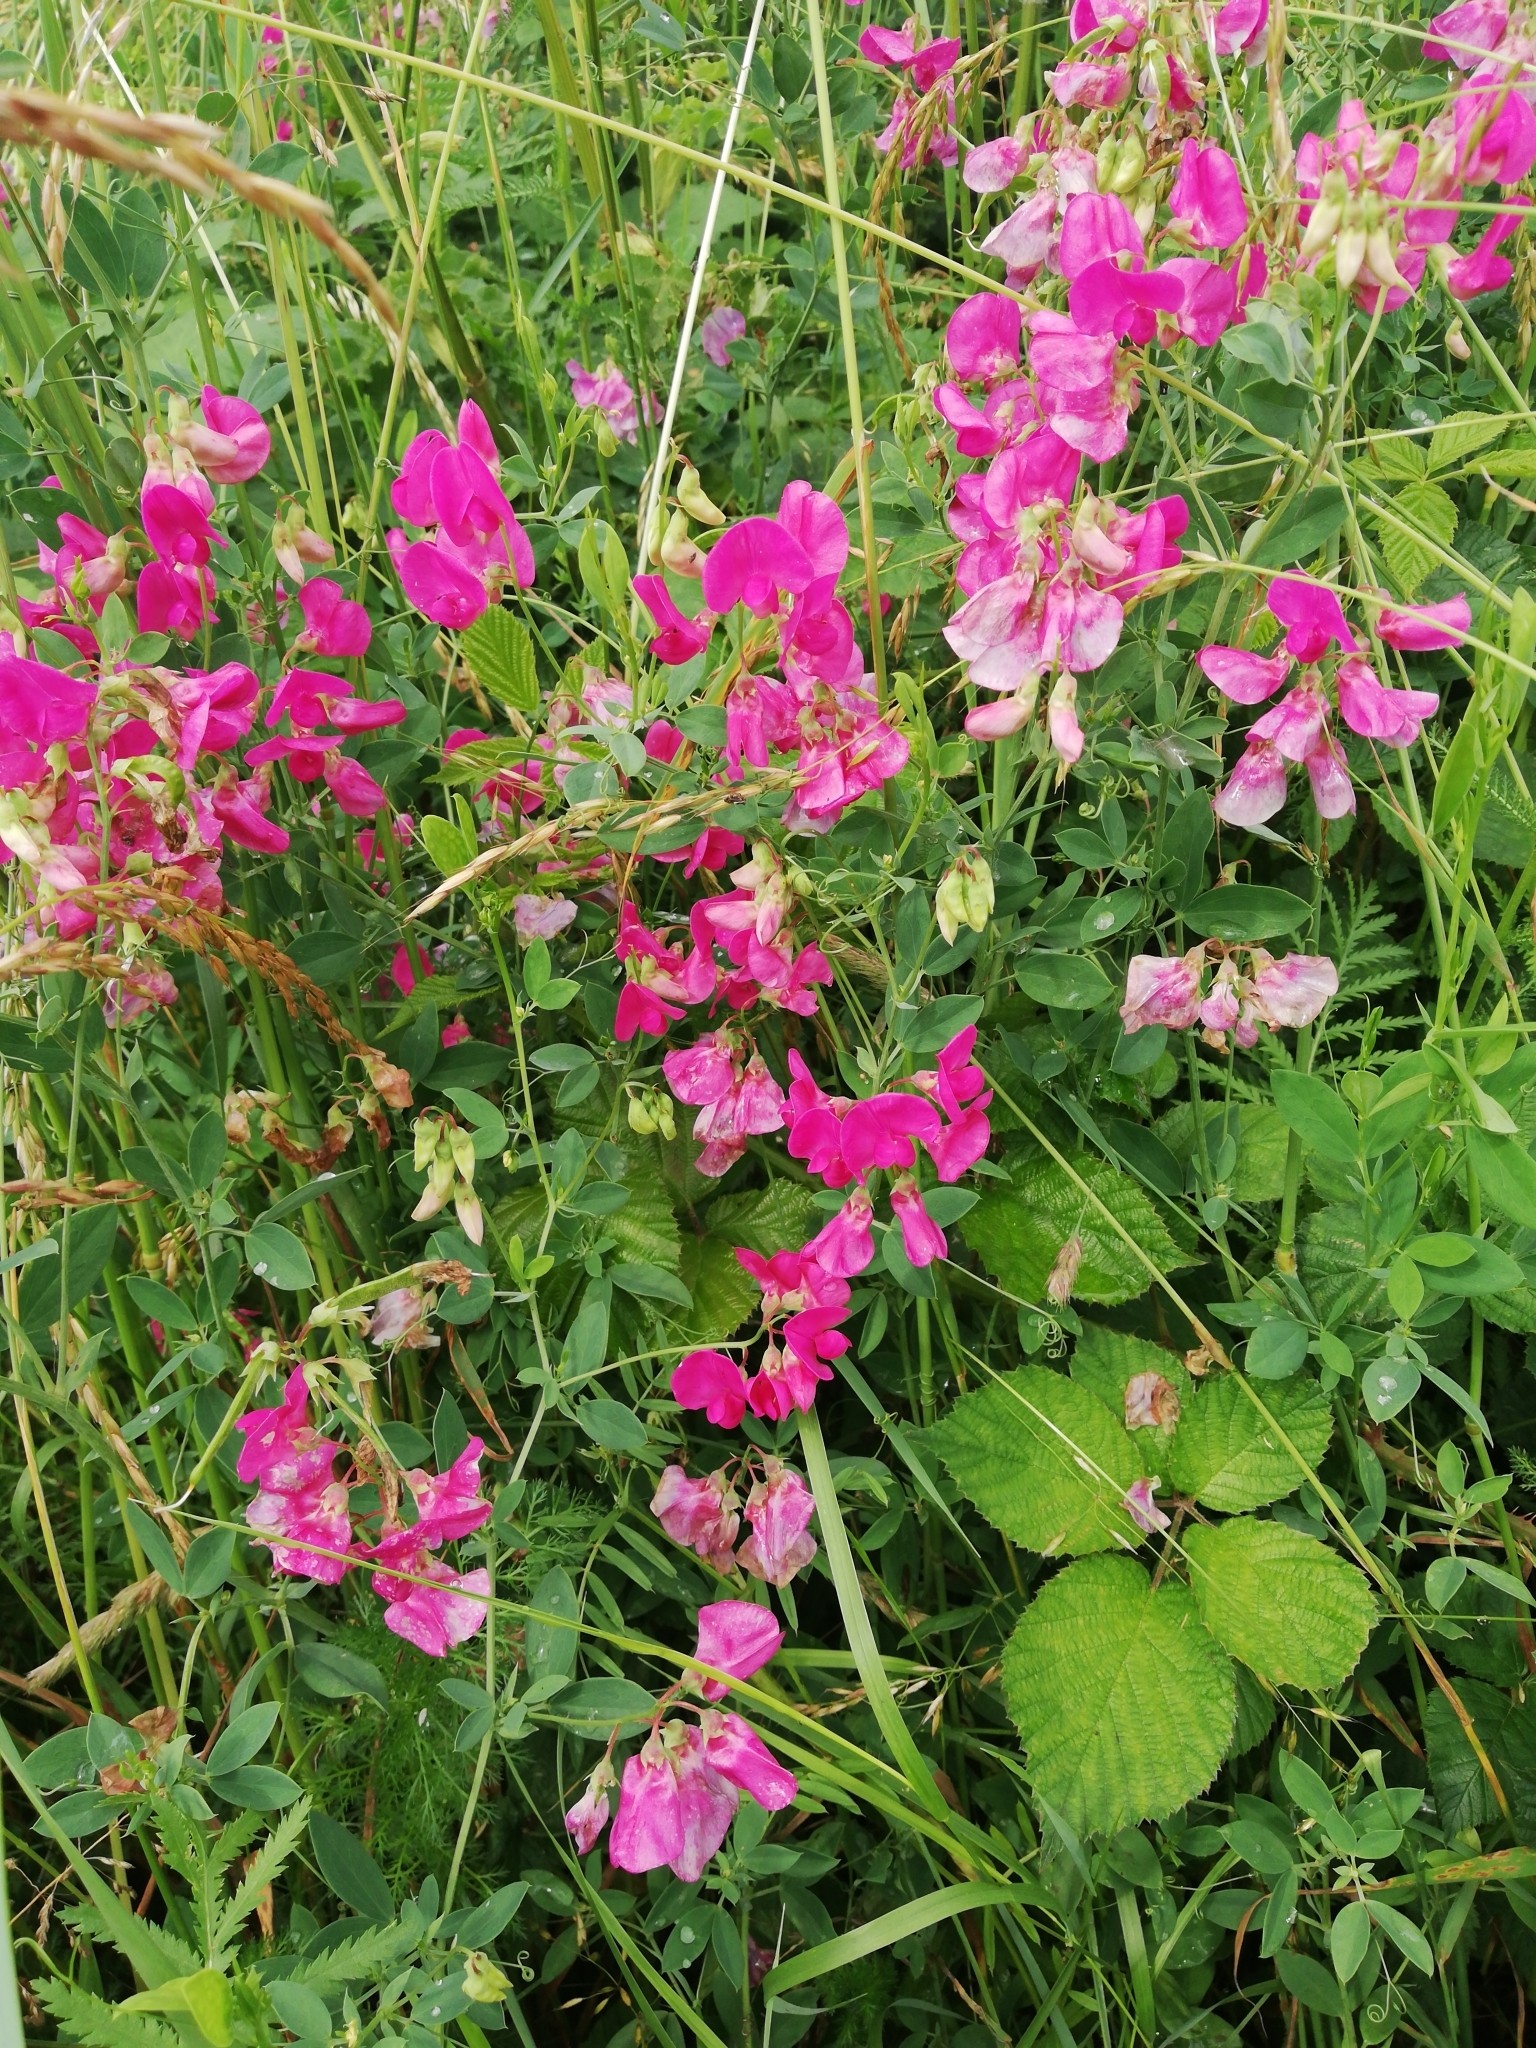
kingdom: Plantae
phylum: Tracheophyta
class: Magnoliopsida
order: Fabales
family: Fabaceae
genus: Lathyrus
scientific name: Lathyrus tuberosus
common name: Tuberous pea
